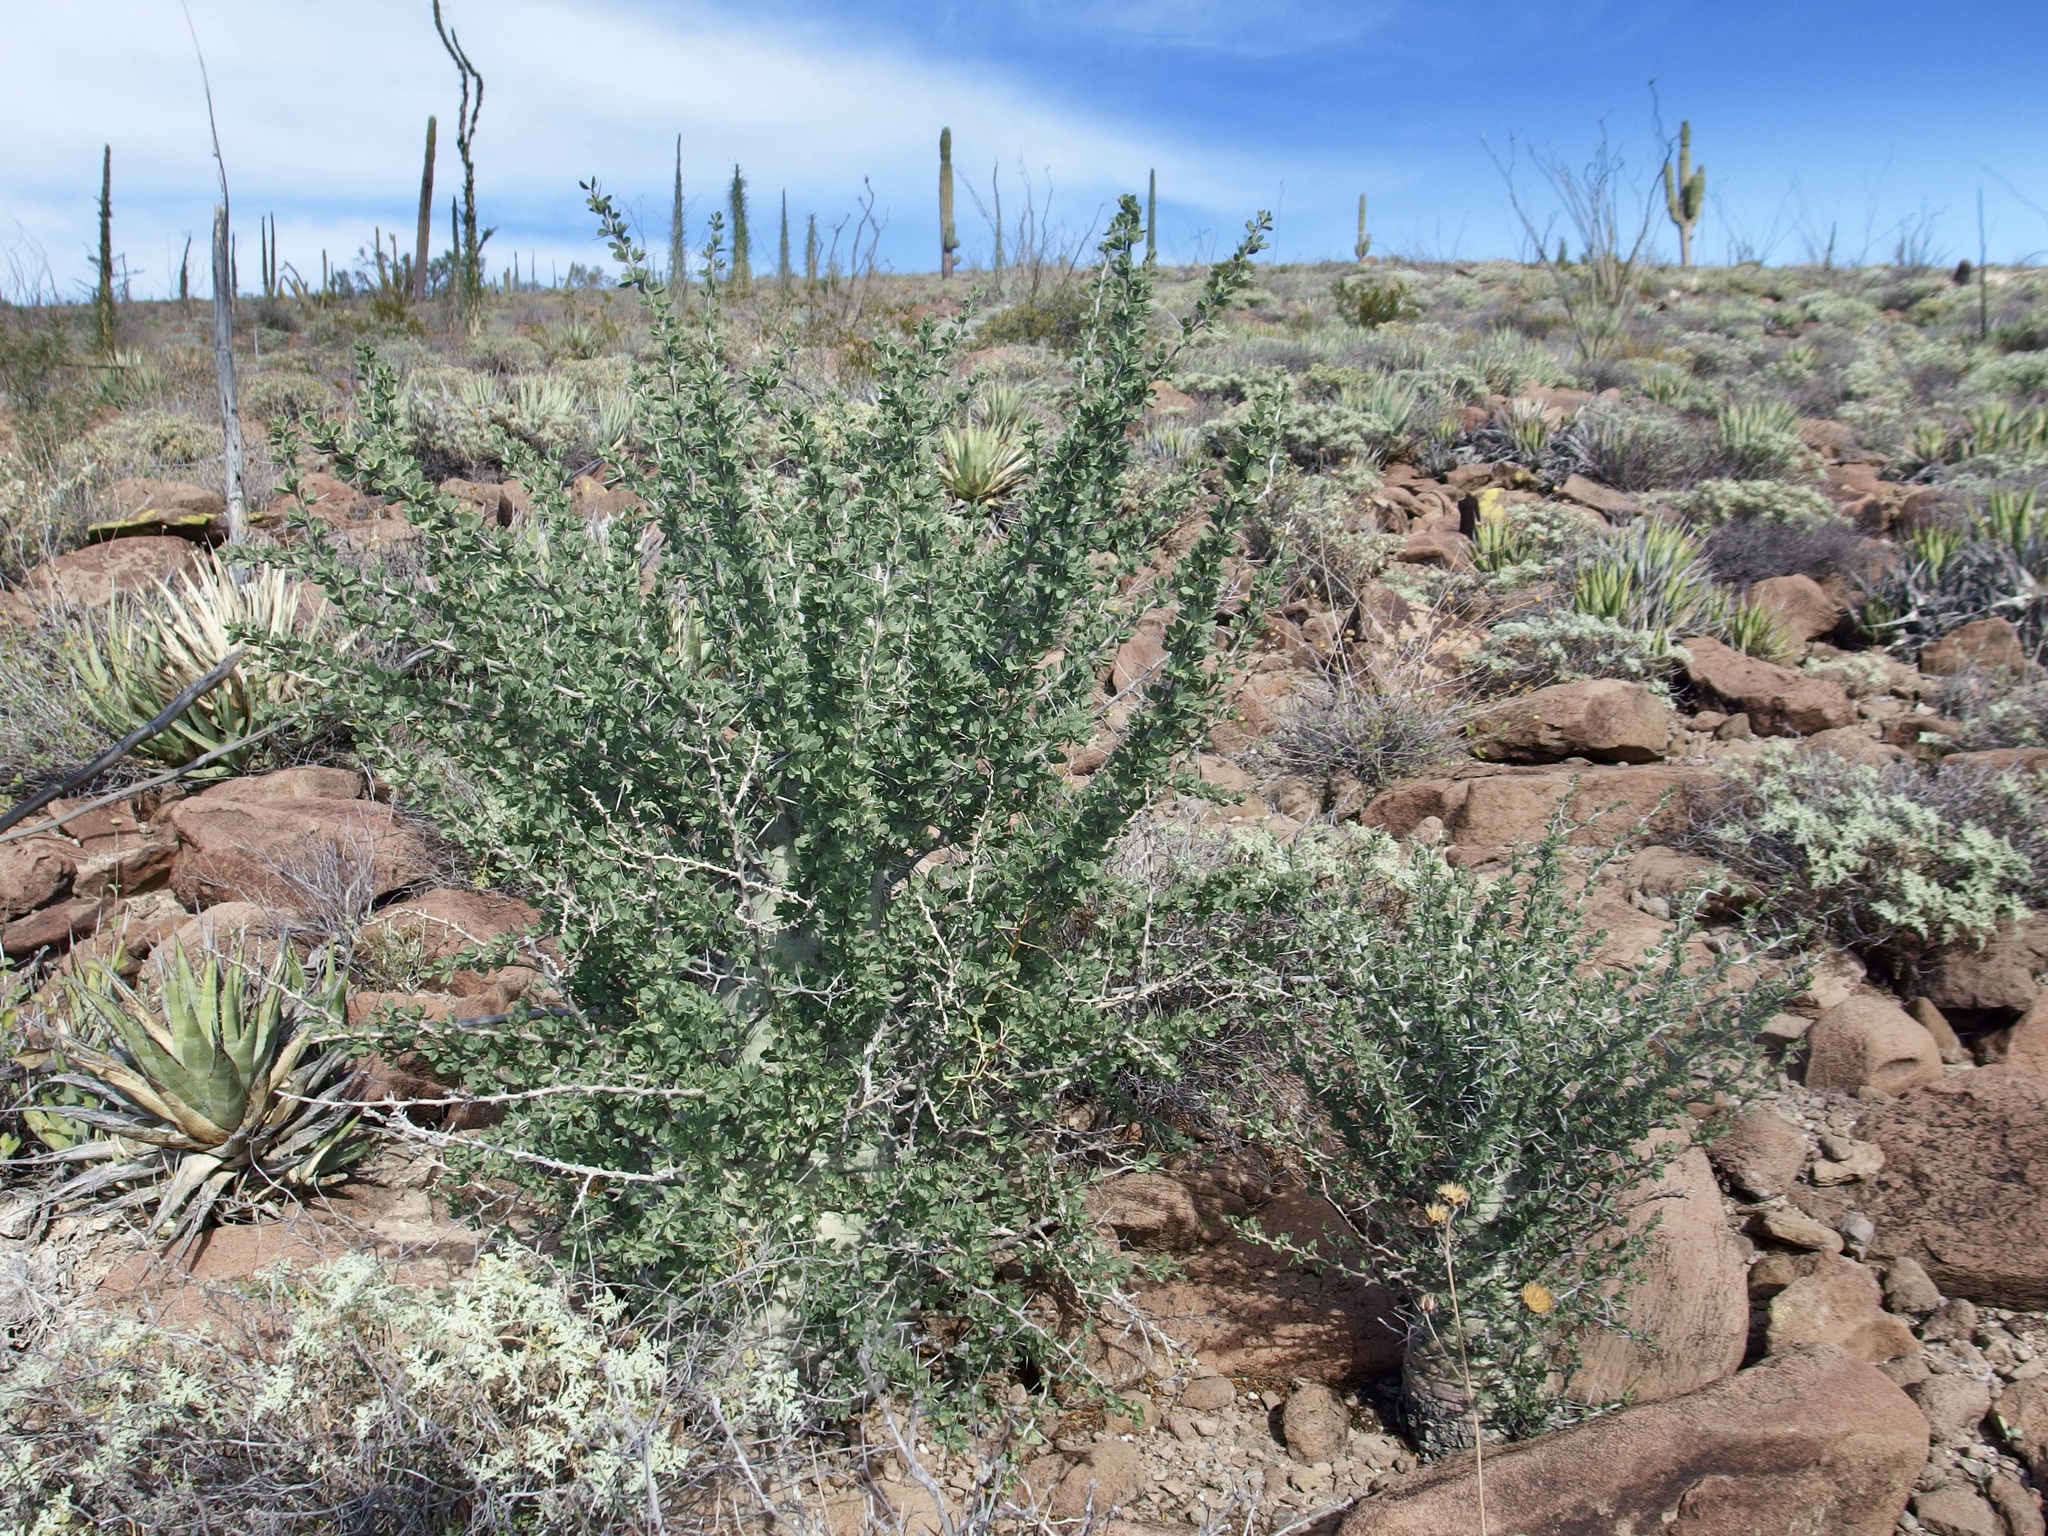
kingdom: Plantae
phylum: Tracheophyta
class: Magnoliopsida
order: Ericales
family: Fouquieriaceae
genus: Fouquieria
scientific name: Fouquieria columnaris
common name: Boojumtree
